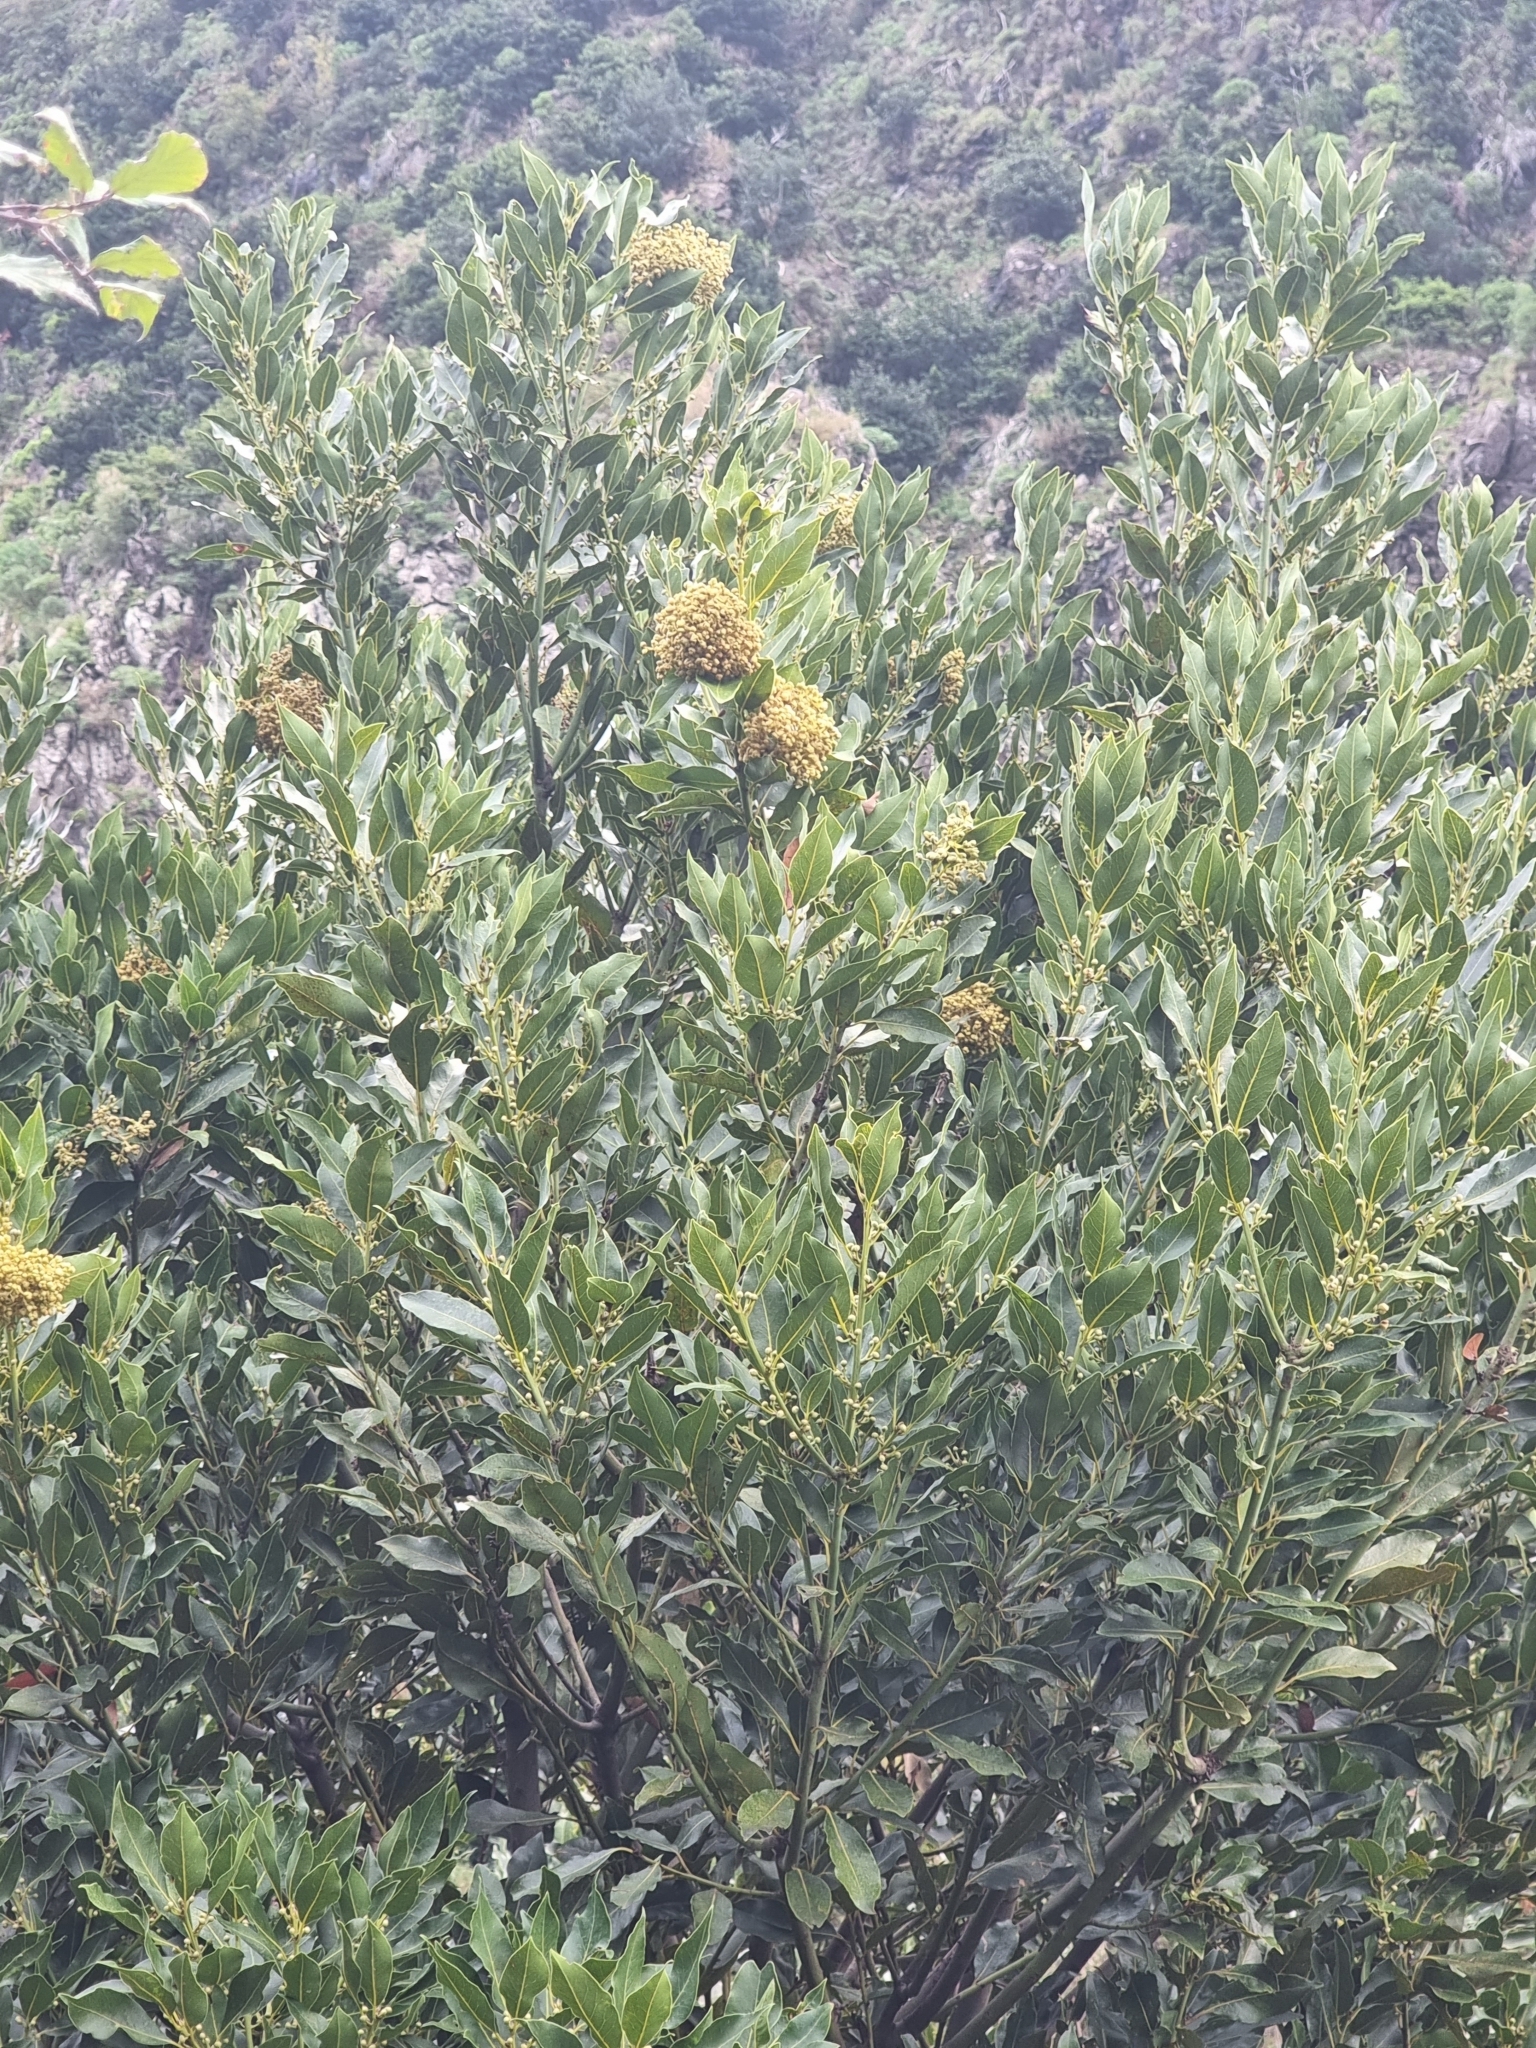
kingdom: Plantae
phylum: Tracheophyta
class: Magnoliopsida
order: Laurales
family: Lauraceae
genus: Laurus
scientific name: Laurus novocanariensis
